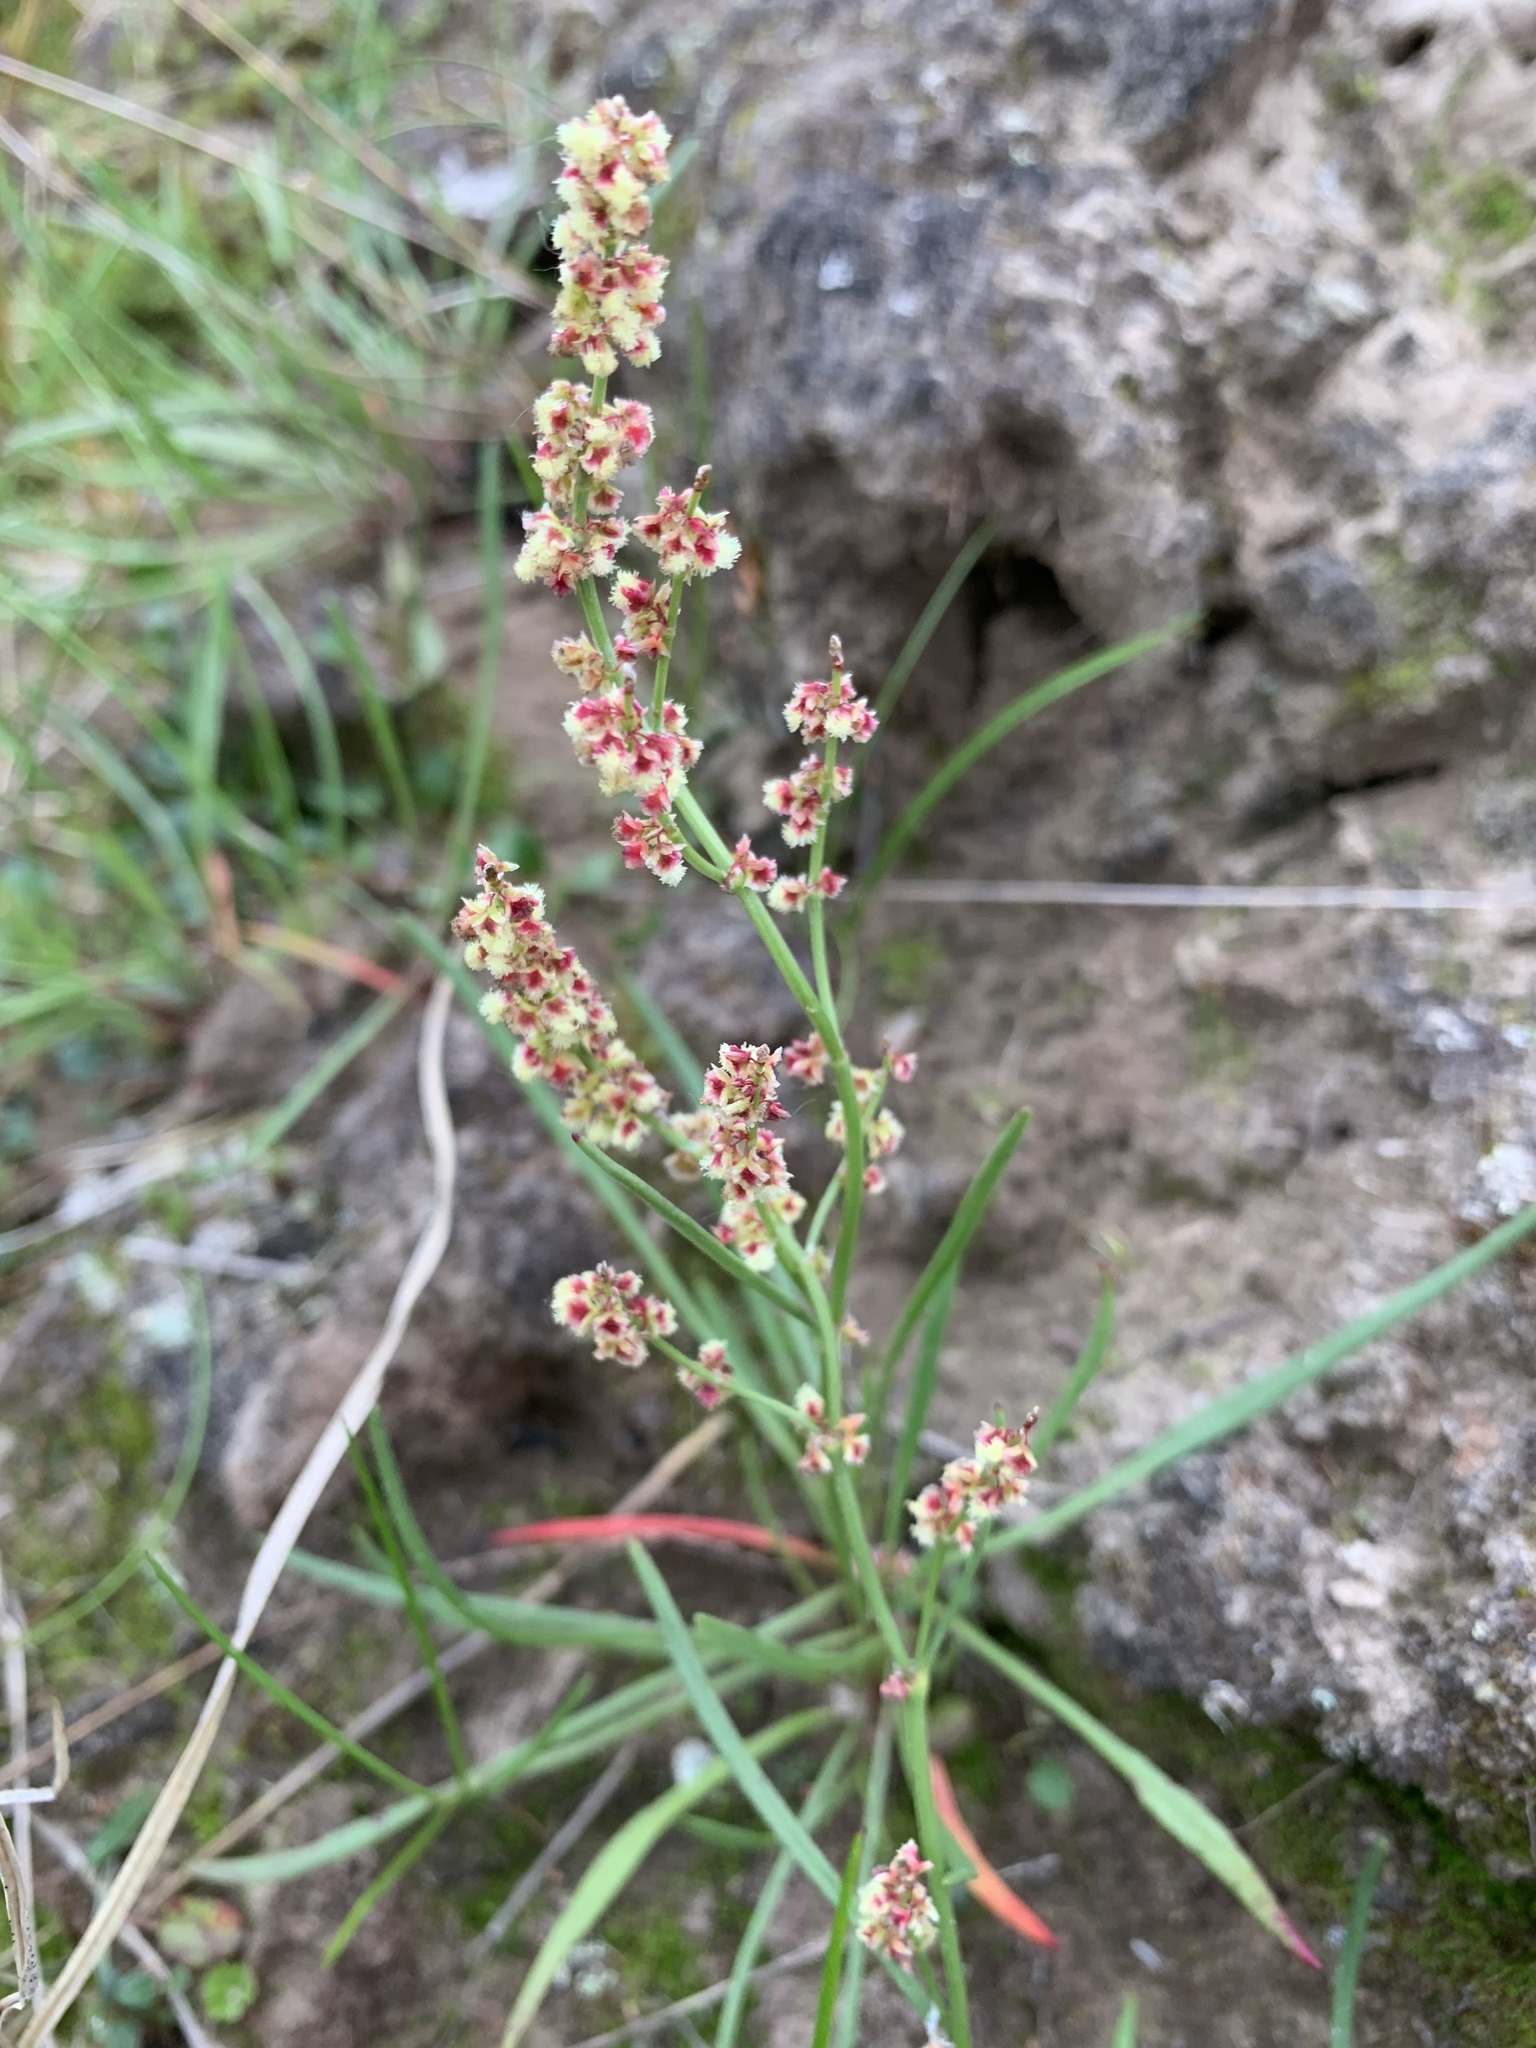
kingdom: Plantae
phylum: Tracheophyta
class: Magnoliopsida
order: Caryophyllales
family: Polygonaceae
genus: Rumex
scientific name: Rumex graminifolius
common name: Grass-leaved sorrel
